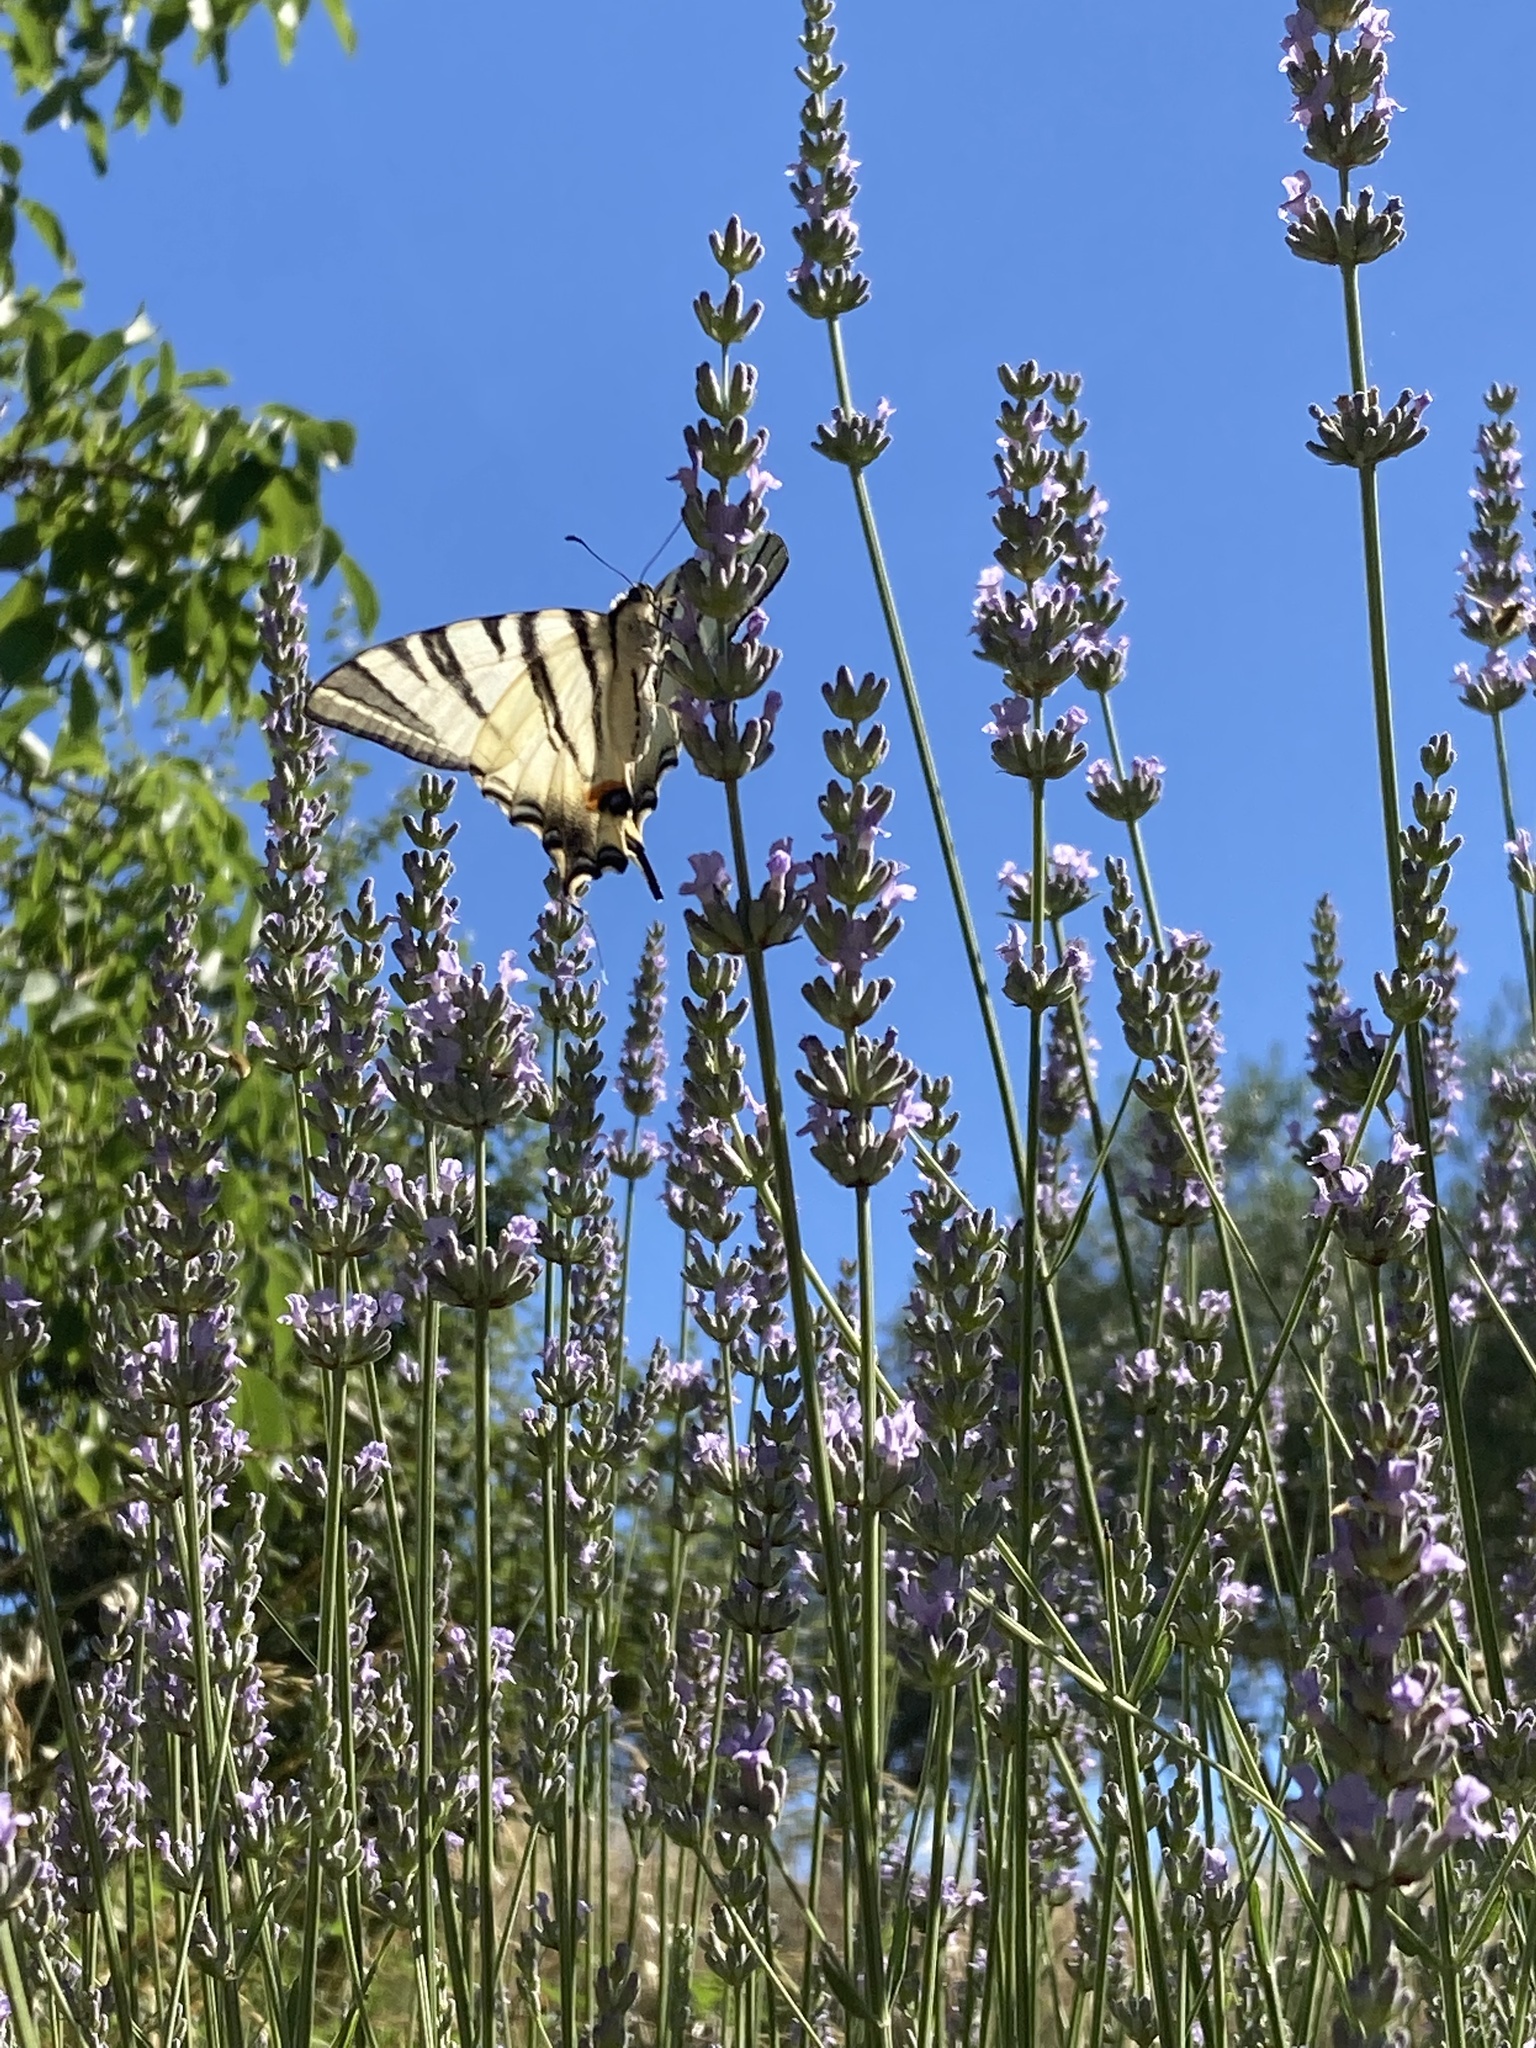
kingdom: Animalia
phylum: Arthropoda
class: Insecta
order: Lepidoptera
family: Papilionidae
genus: Iphiclides
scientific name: Iphiclides podalirius
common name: Scarce swallowtail
